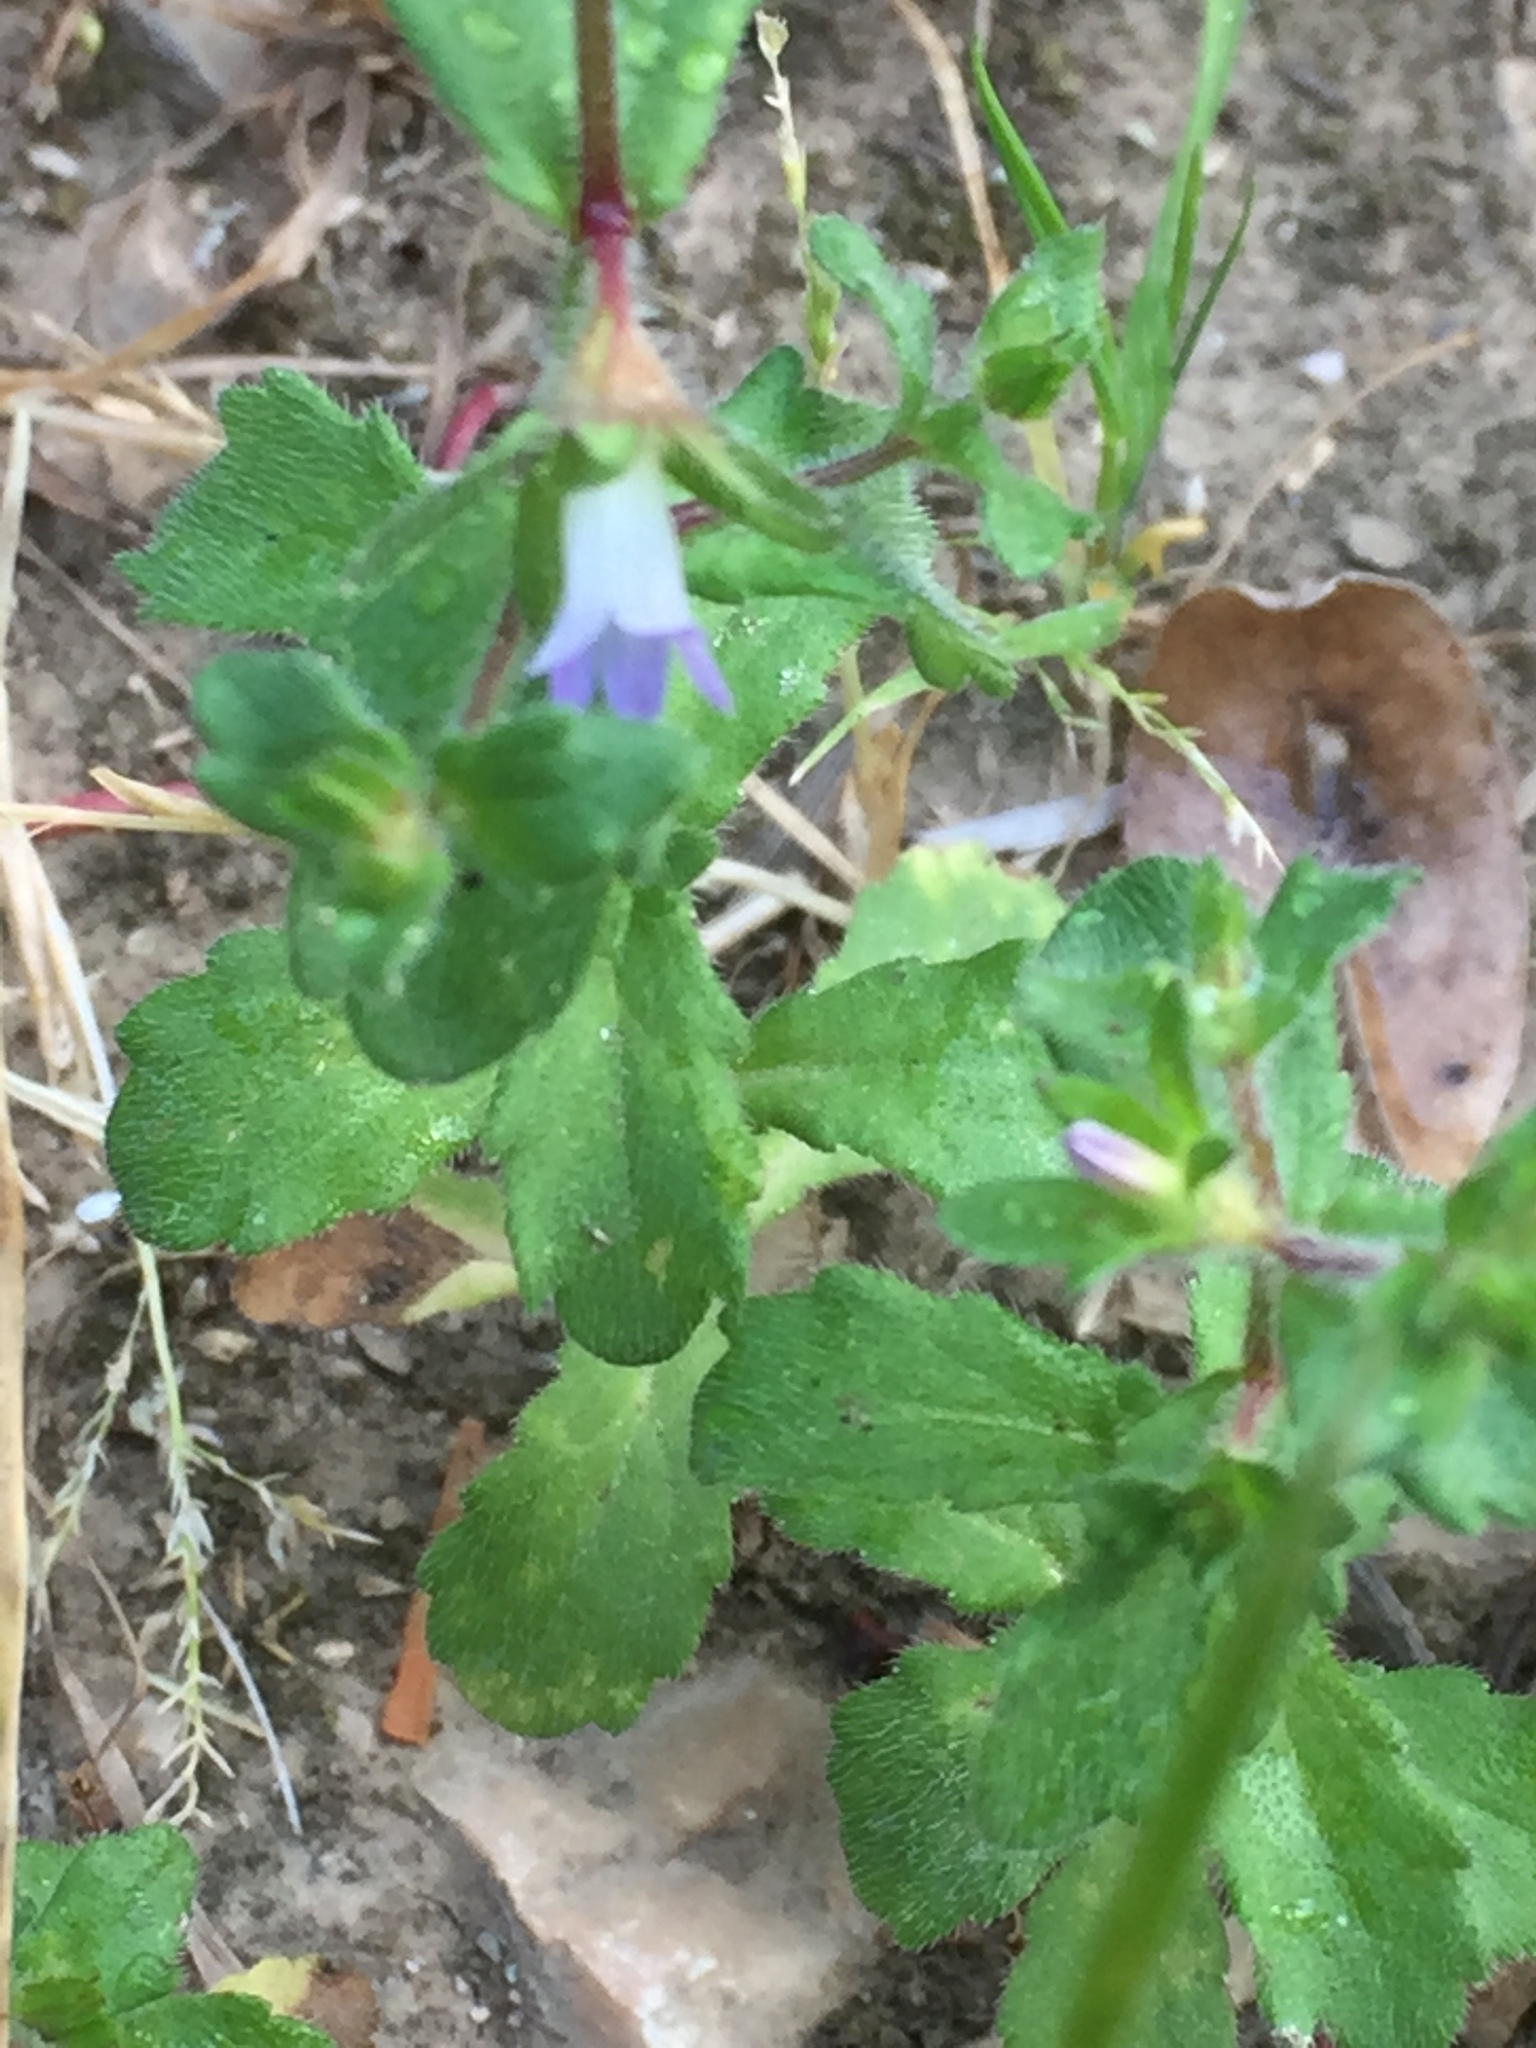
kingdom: Plantae
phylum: Tracheophyta
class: Magnoliopsida
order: Asterales
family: Campanulaceae
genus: Campanula
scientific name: Campanula erinus
